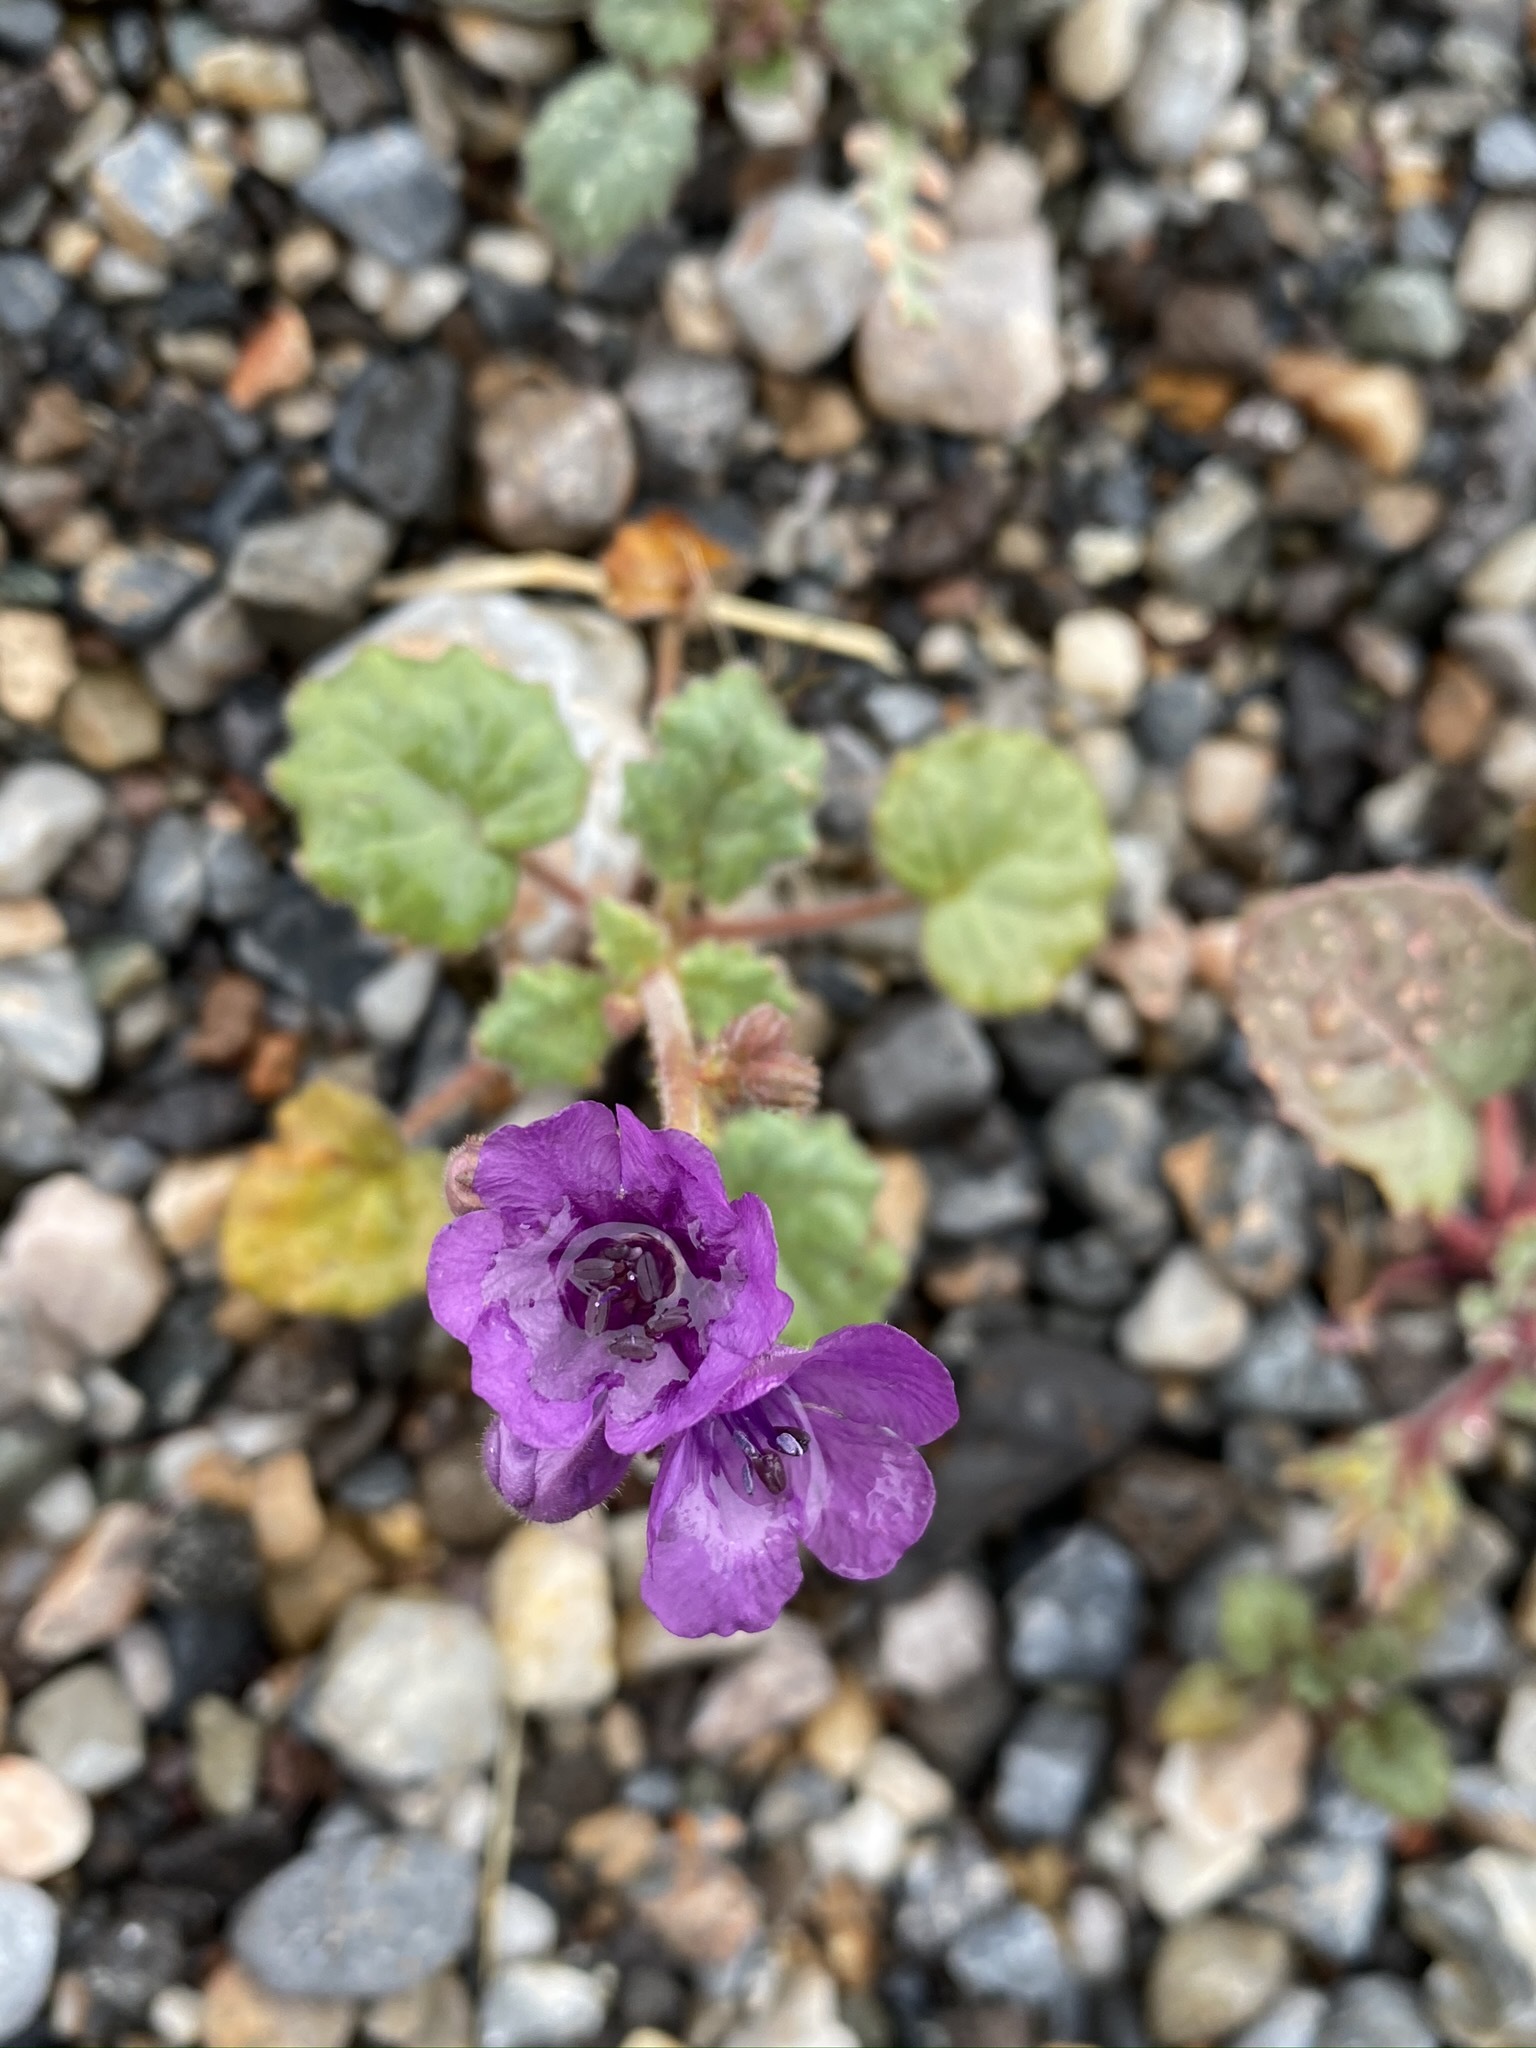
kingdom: Plantae
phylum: Tracheophyta
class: Magnoliopsida
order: Boraginales
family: Hydrophyllaceae
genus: Phacelia
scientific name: Phacelia calthifolia
